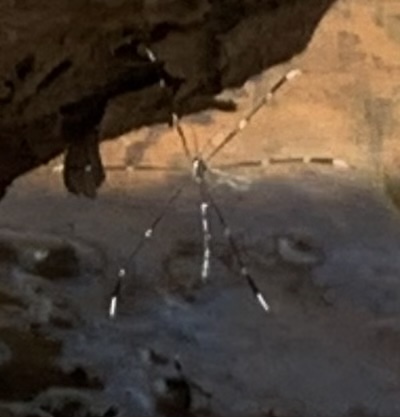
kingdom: Animalia
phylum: Arthropoda
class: Insecta
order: Diptera
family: Ptychopteridae
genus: Bittacomorpha
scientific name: Bittacomorpha clavipes
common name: Eastern phantom crane fly
